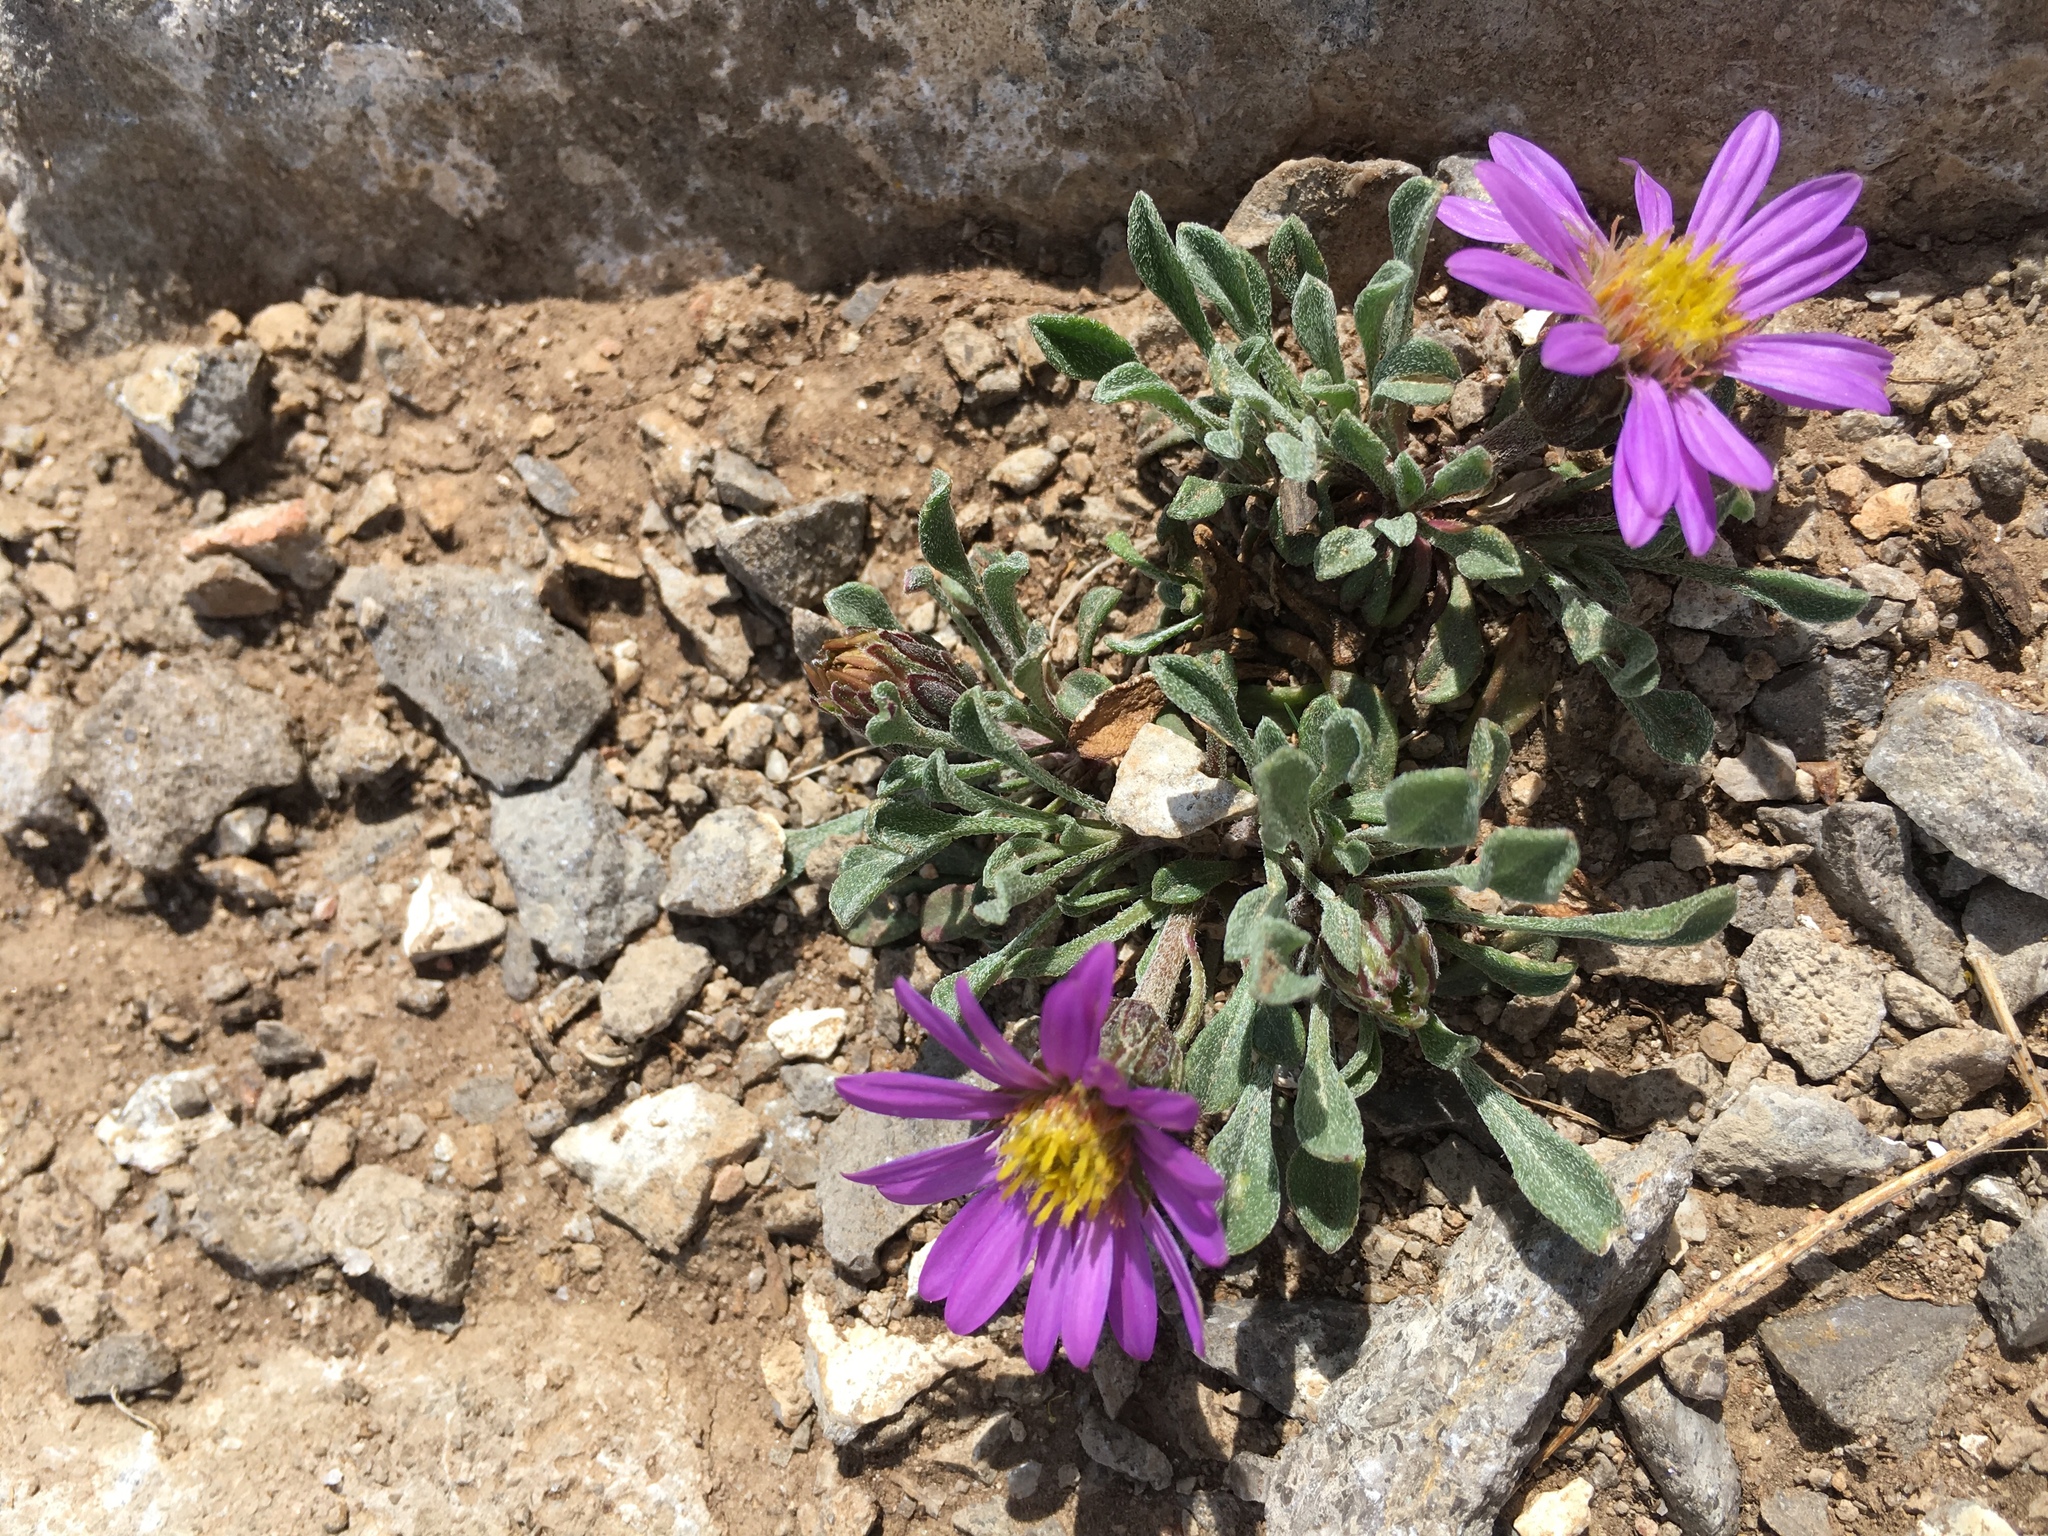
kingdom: Plantae
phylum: Tracheophyta
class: Magnoliopsida
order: Asterales
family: Asteraceae
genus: Townsendia
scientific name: Townsendia montana
